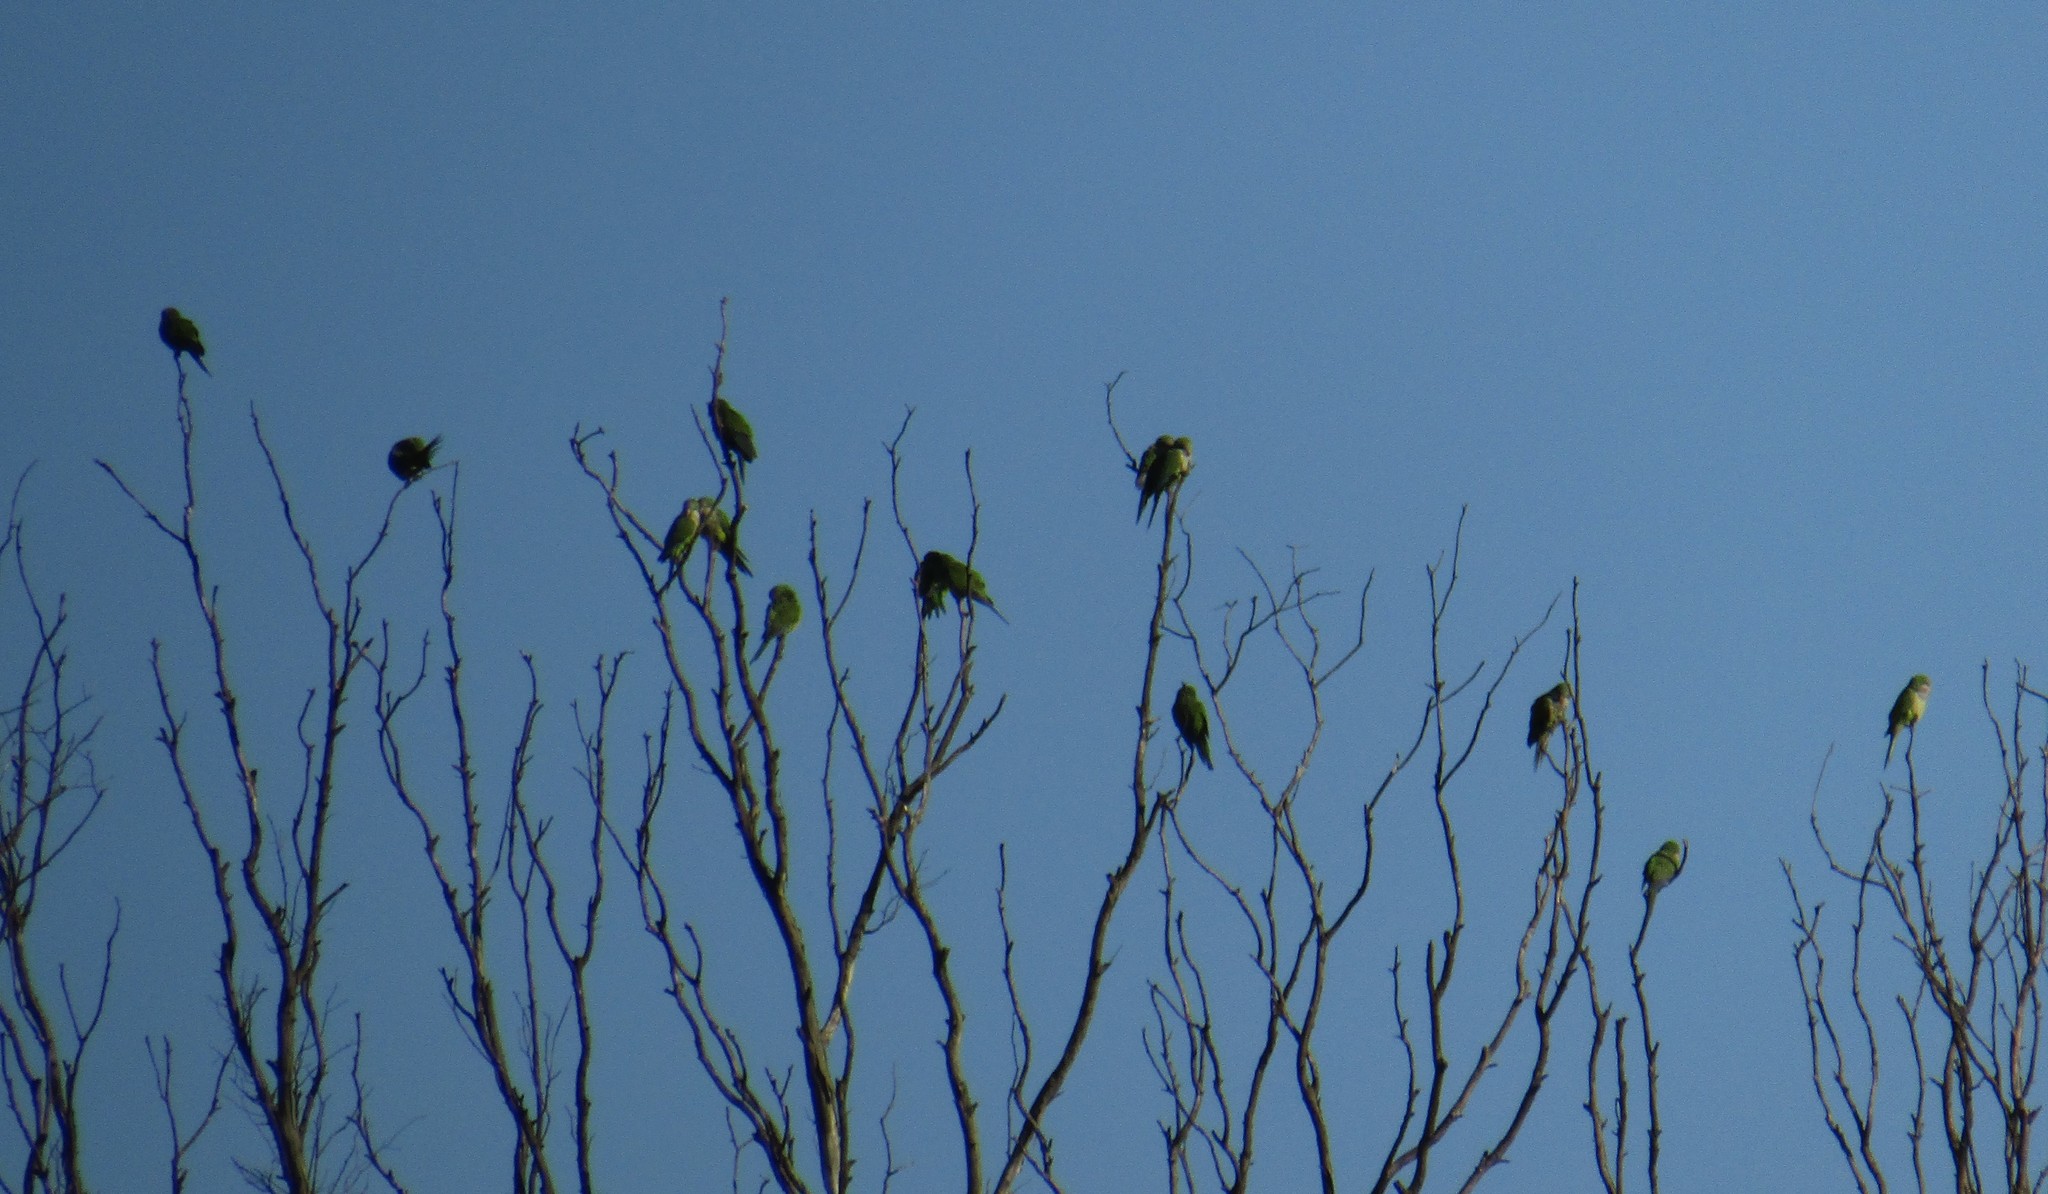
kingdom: Animalia
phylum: Chordata
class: Aves
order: Psittaciformes
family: Psittacidae
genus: Myiopsitta
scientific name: Myiopsitta monachus
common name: Monk parakeet
